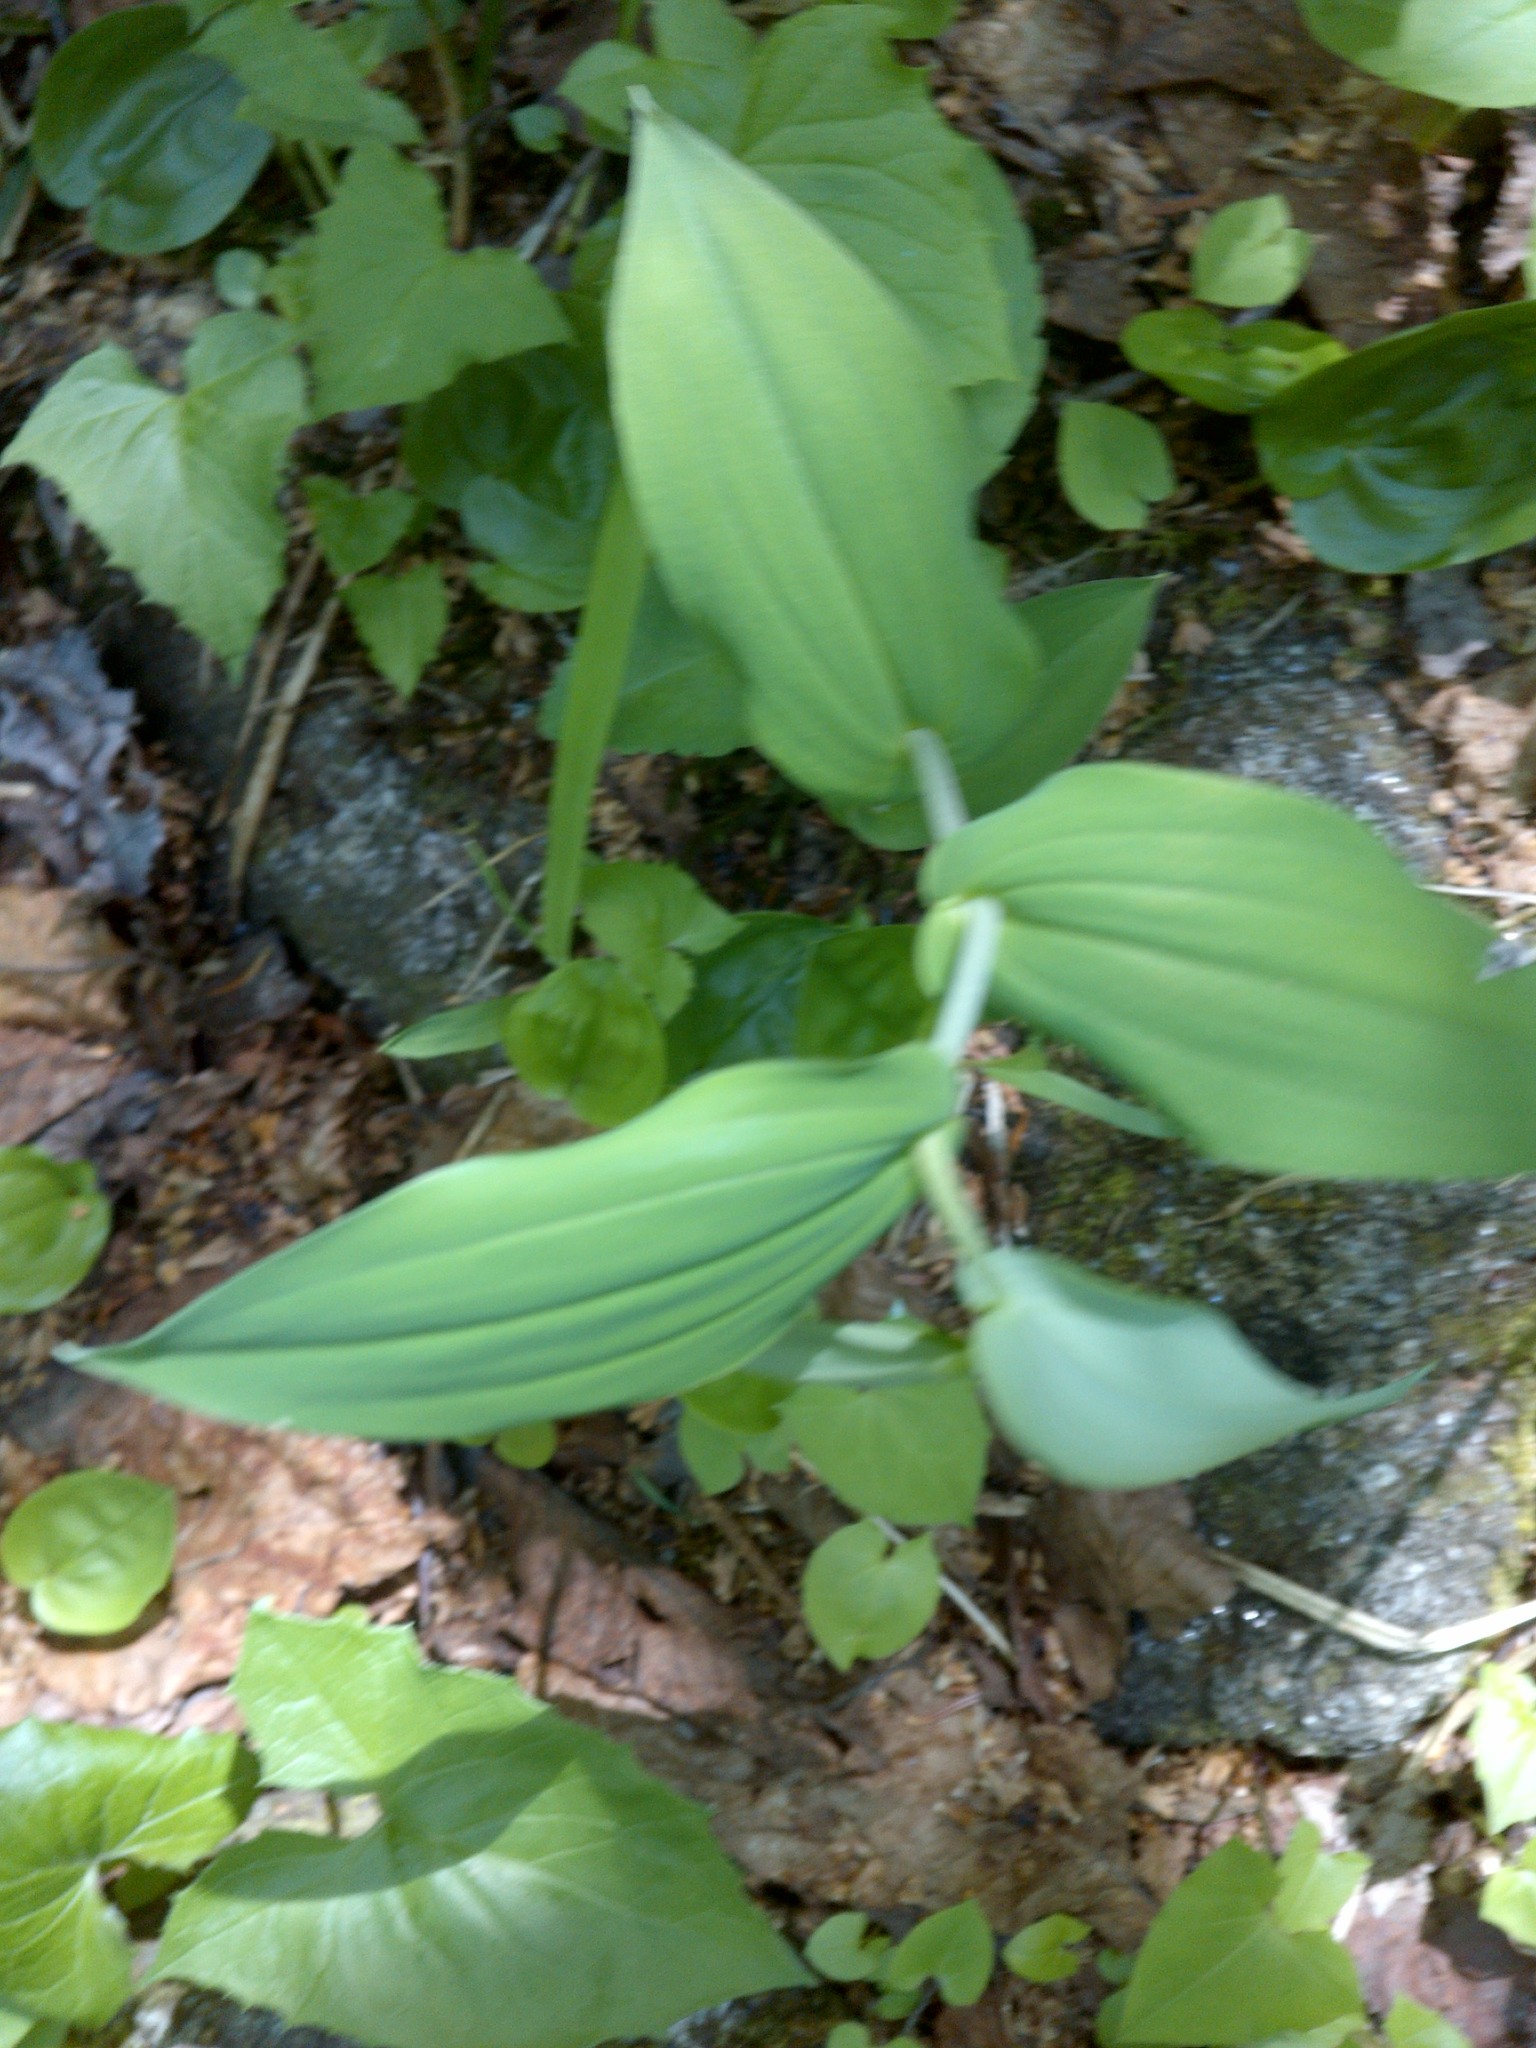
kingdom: Plantae
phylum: Tracheophyta
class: Liliopsida
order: Liliales
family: Liliaceae
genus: Streptopus
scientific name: Streptopus amplexifolius
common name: Clasp twisted stalk
